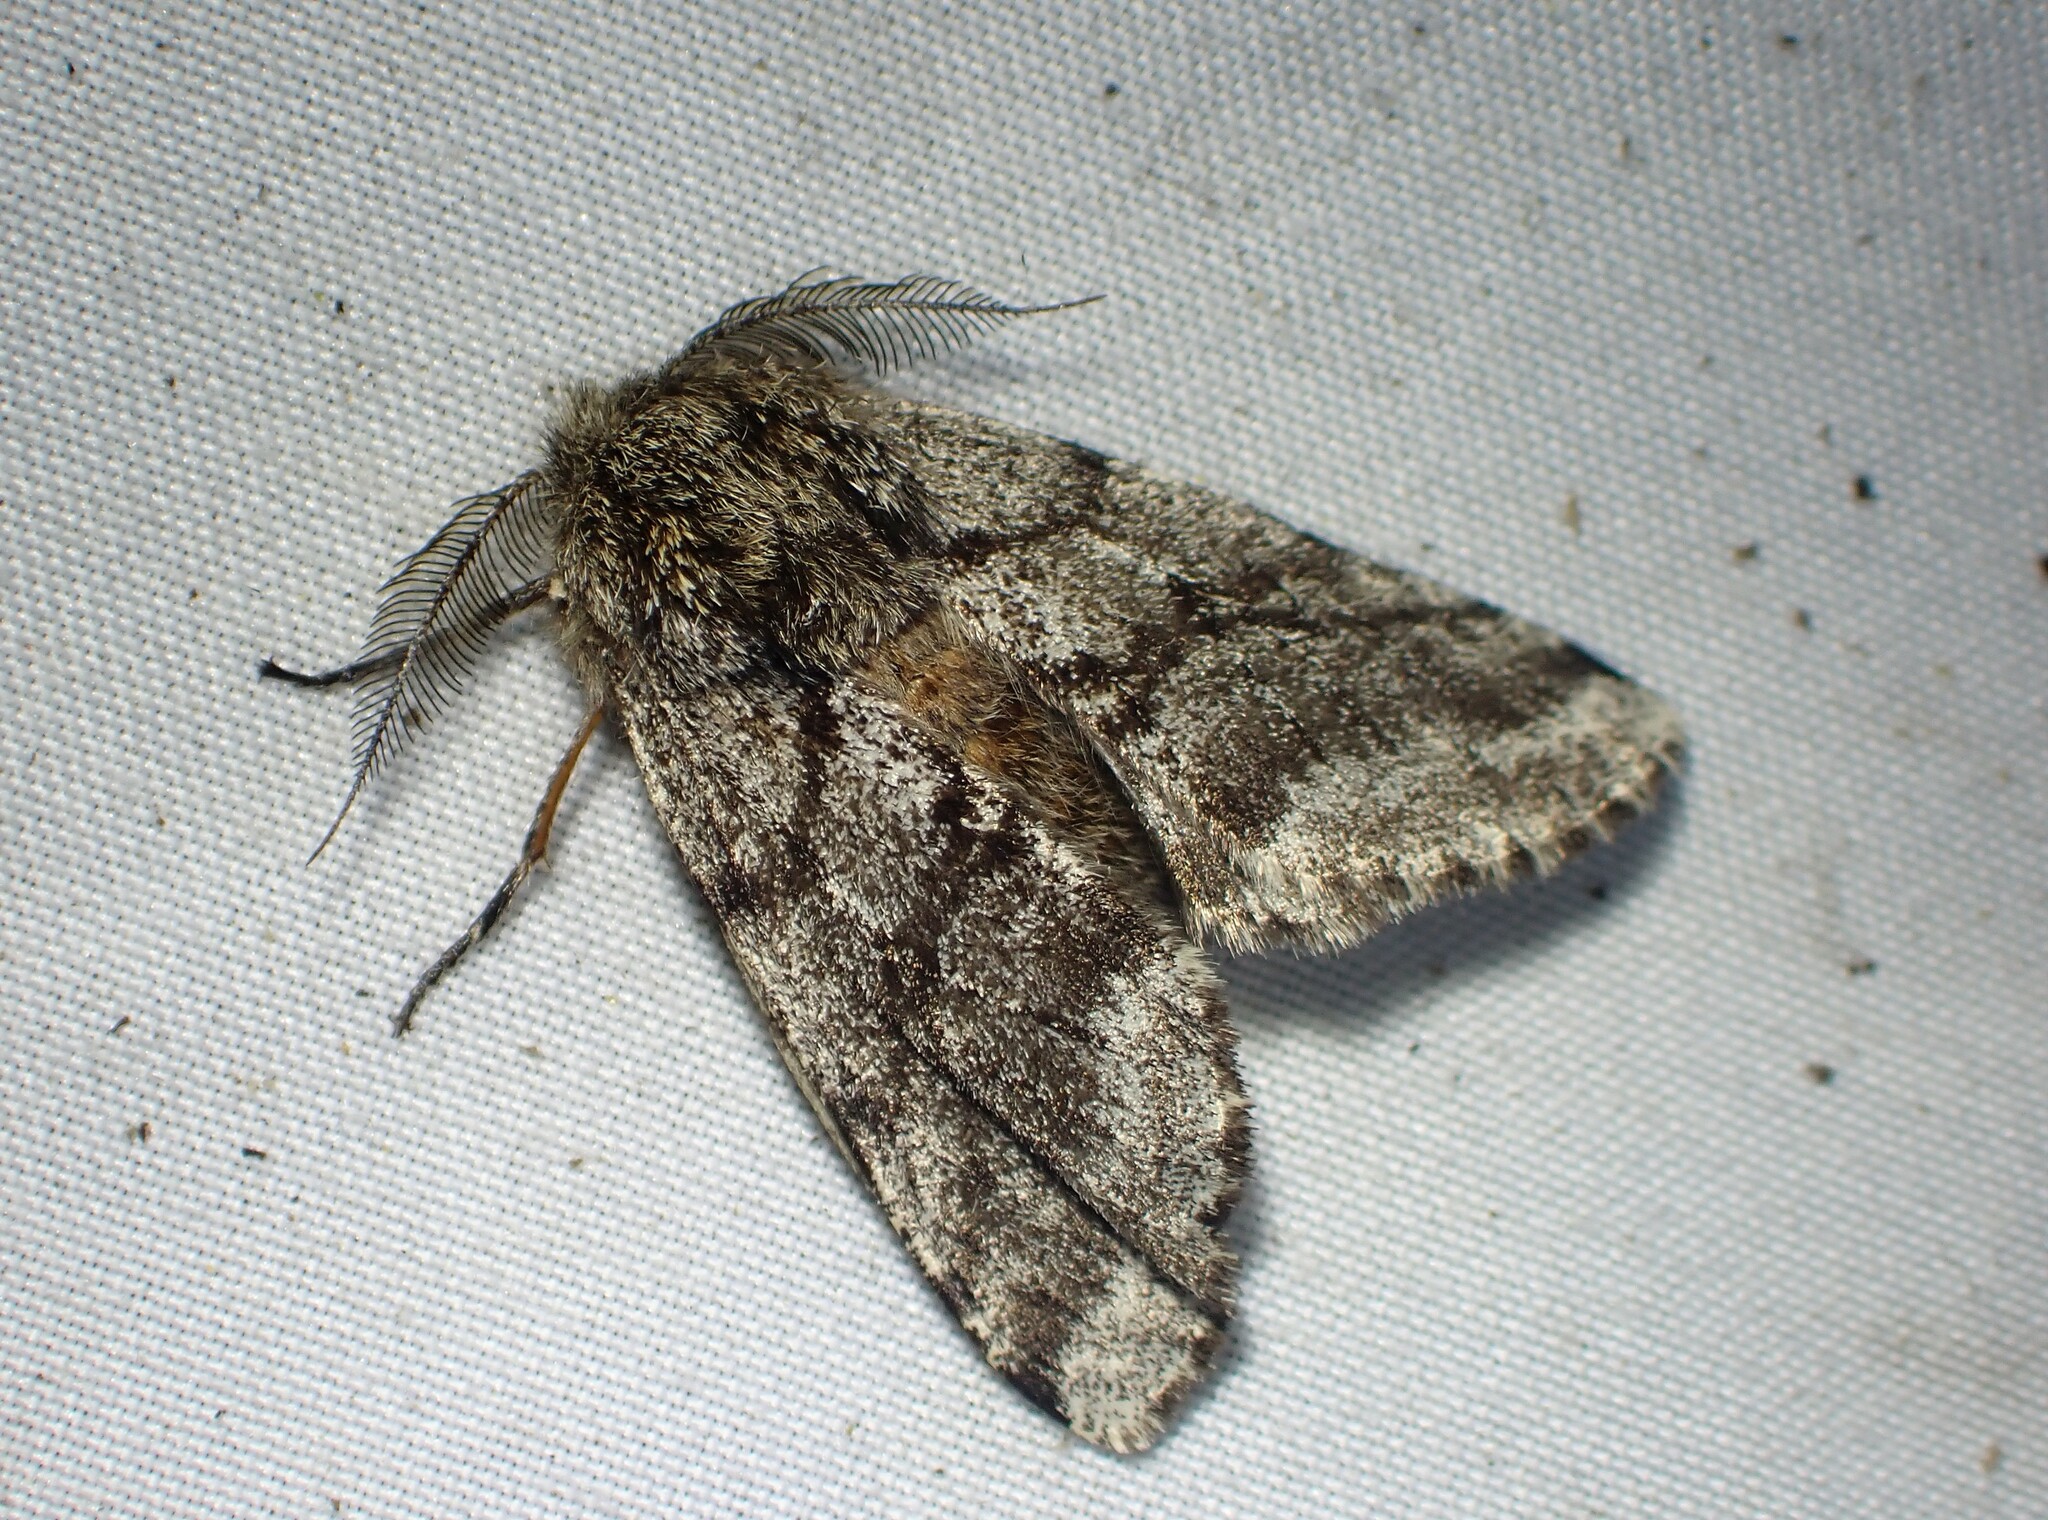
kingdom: Animalia
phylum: Arthropoda
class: Insecta
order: Lepidoptera
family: Geometridae
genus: Lycia
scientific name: Lycia ursaria
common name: Stout spanworm
